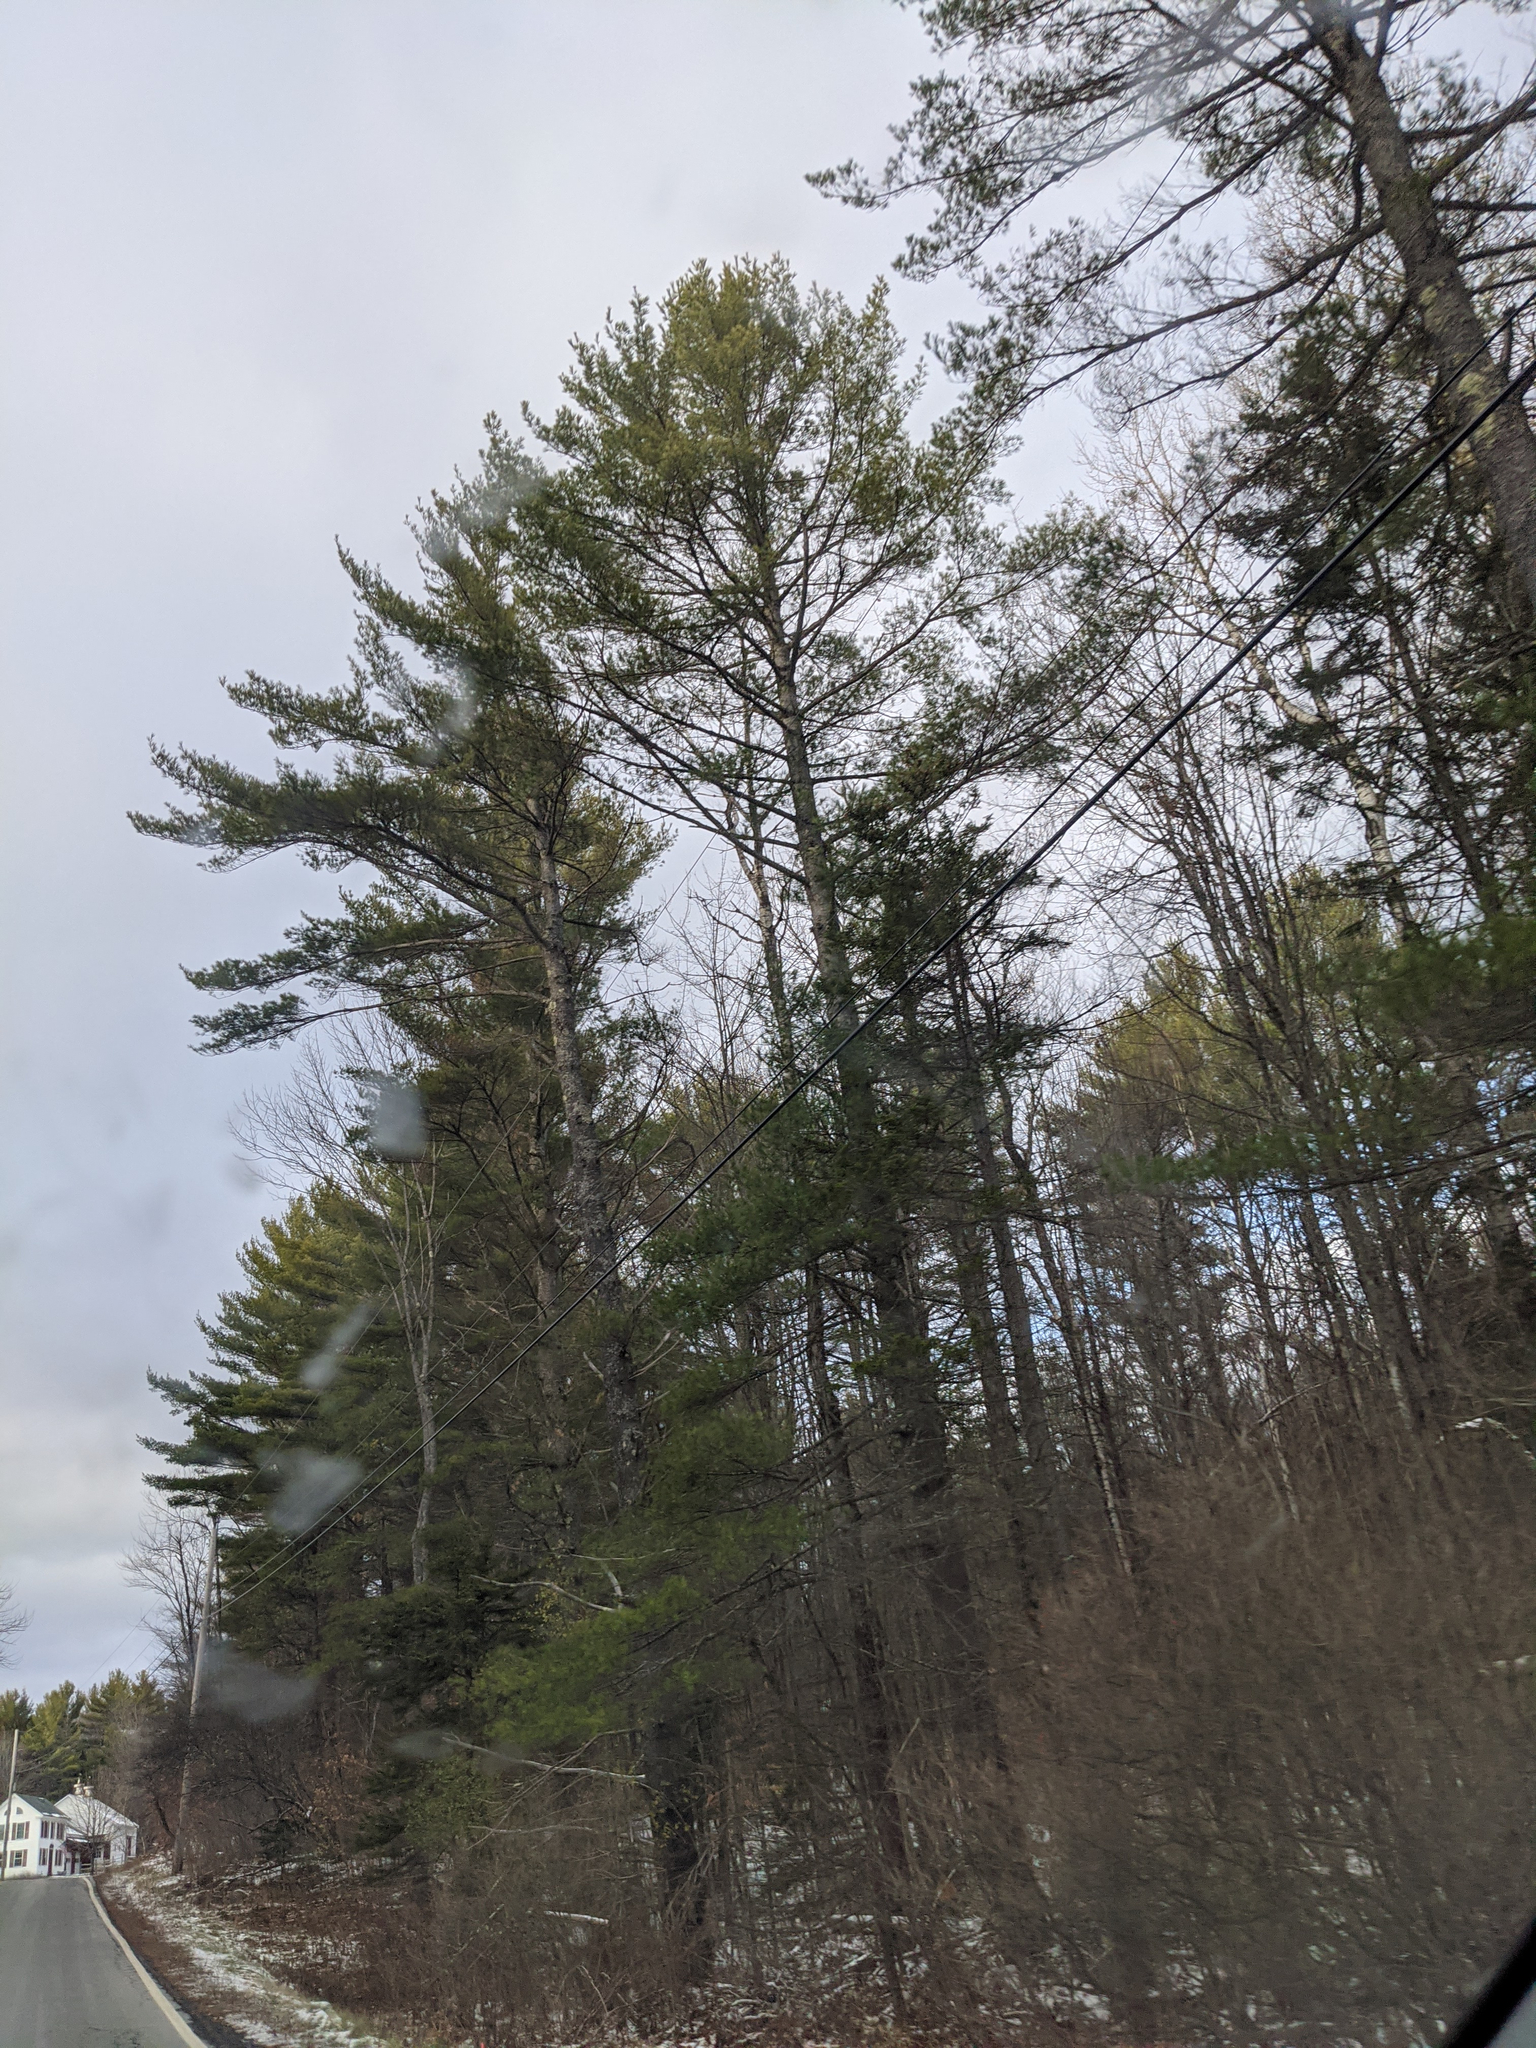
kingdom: Plantae
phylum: Tracheophyta
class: Pinopsida
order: Pinales
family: Pinaceae
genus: Pinus
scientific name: Pinus strobus
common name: Weymouth pine
